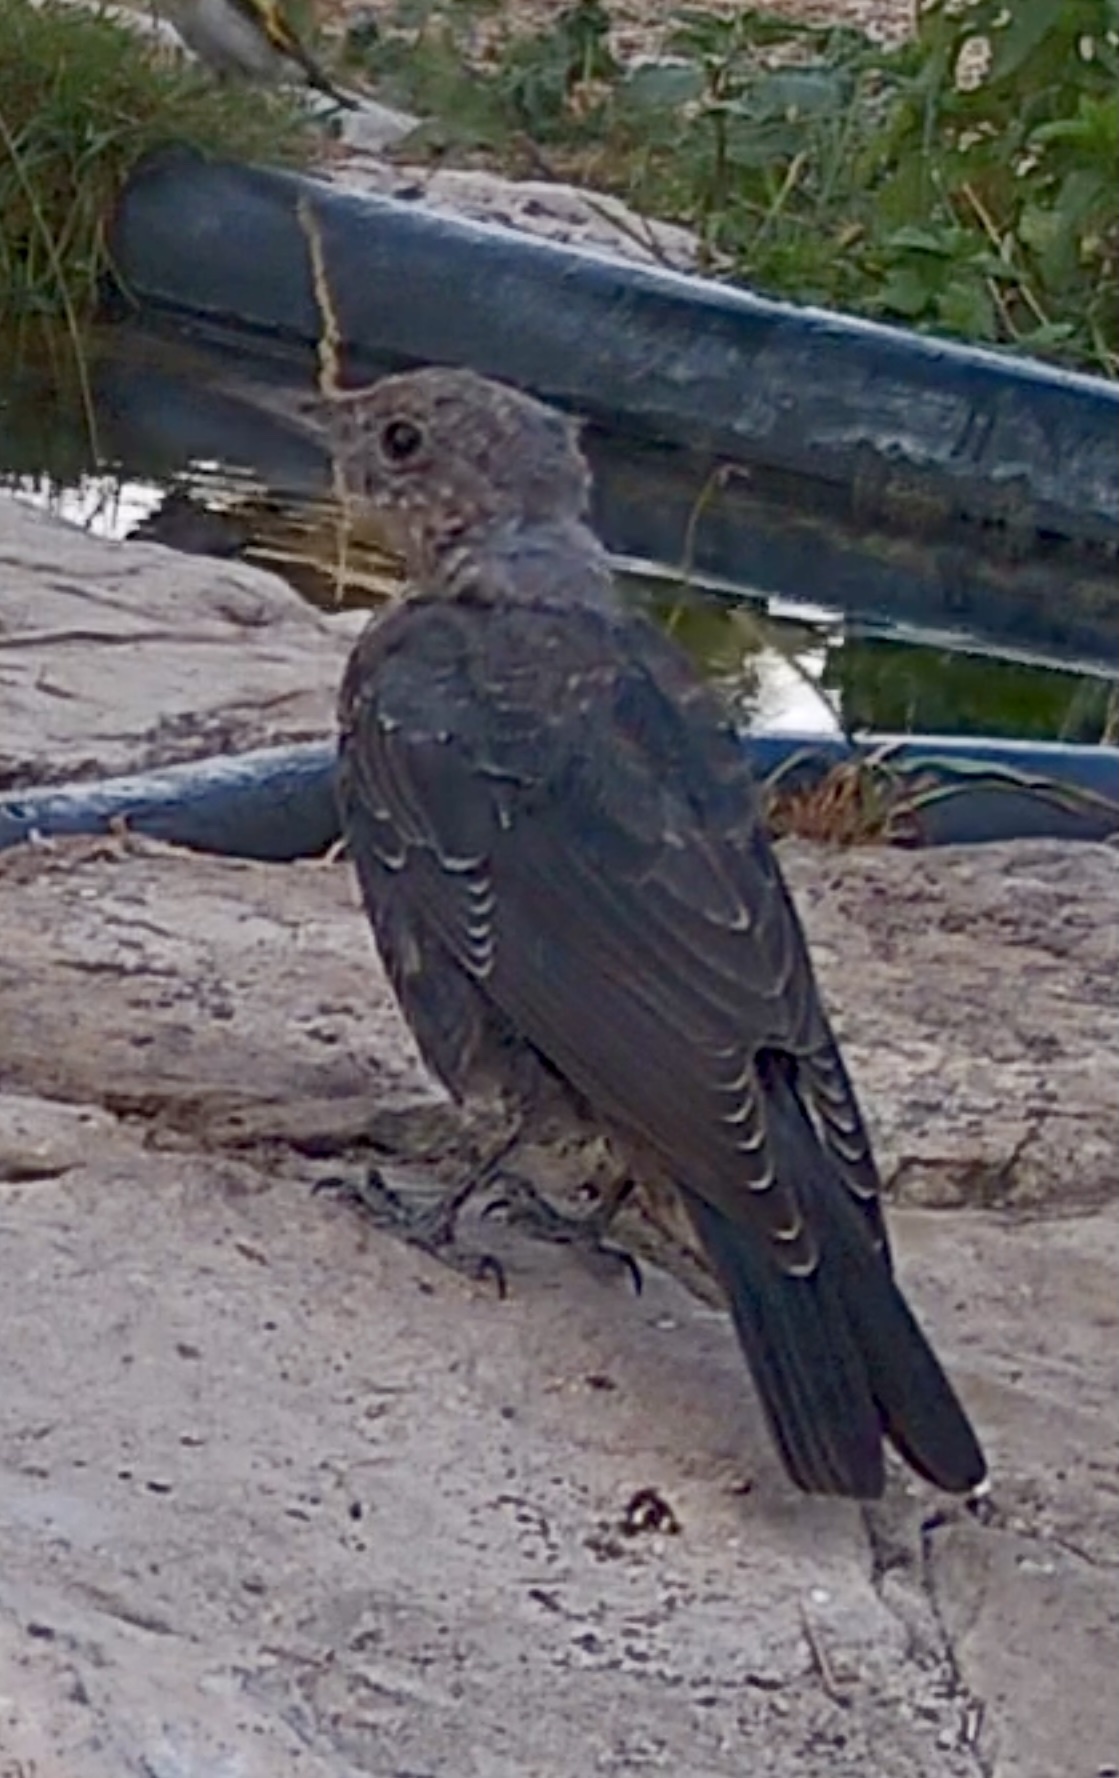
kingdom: Animalia
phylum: Chordata
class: Aves
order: Passeriformes
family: Muscicapidae
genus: Monticola
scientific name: Monticola solitarius
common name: Blue rock thrush
